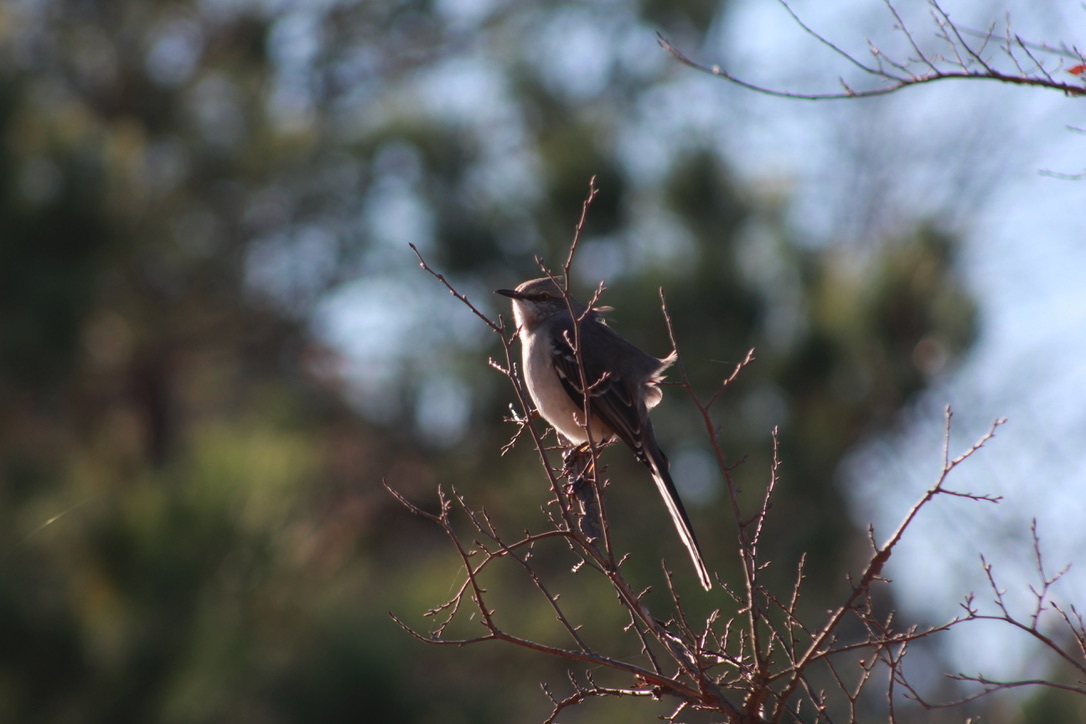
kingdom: Animalia
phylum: Chordata
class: Aves
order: Passeriformes
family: Mimidae
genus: Mimus
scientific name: Mimus polyglottos
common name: Northern mockingbird
